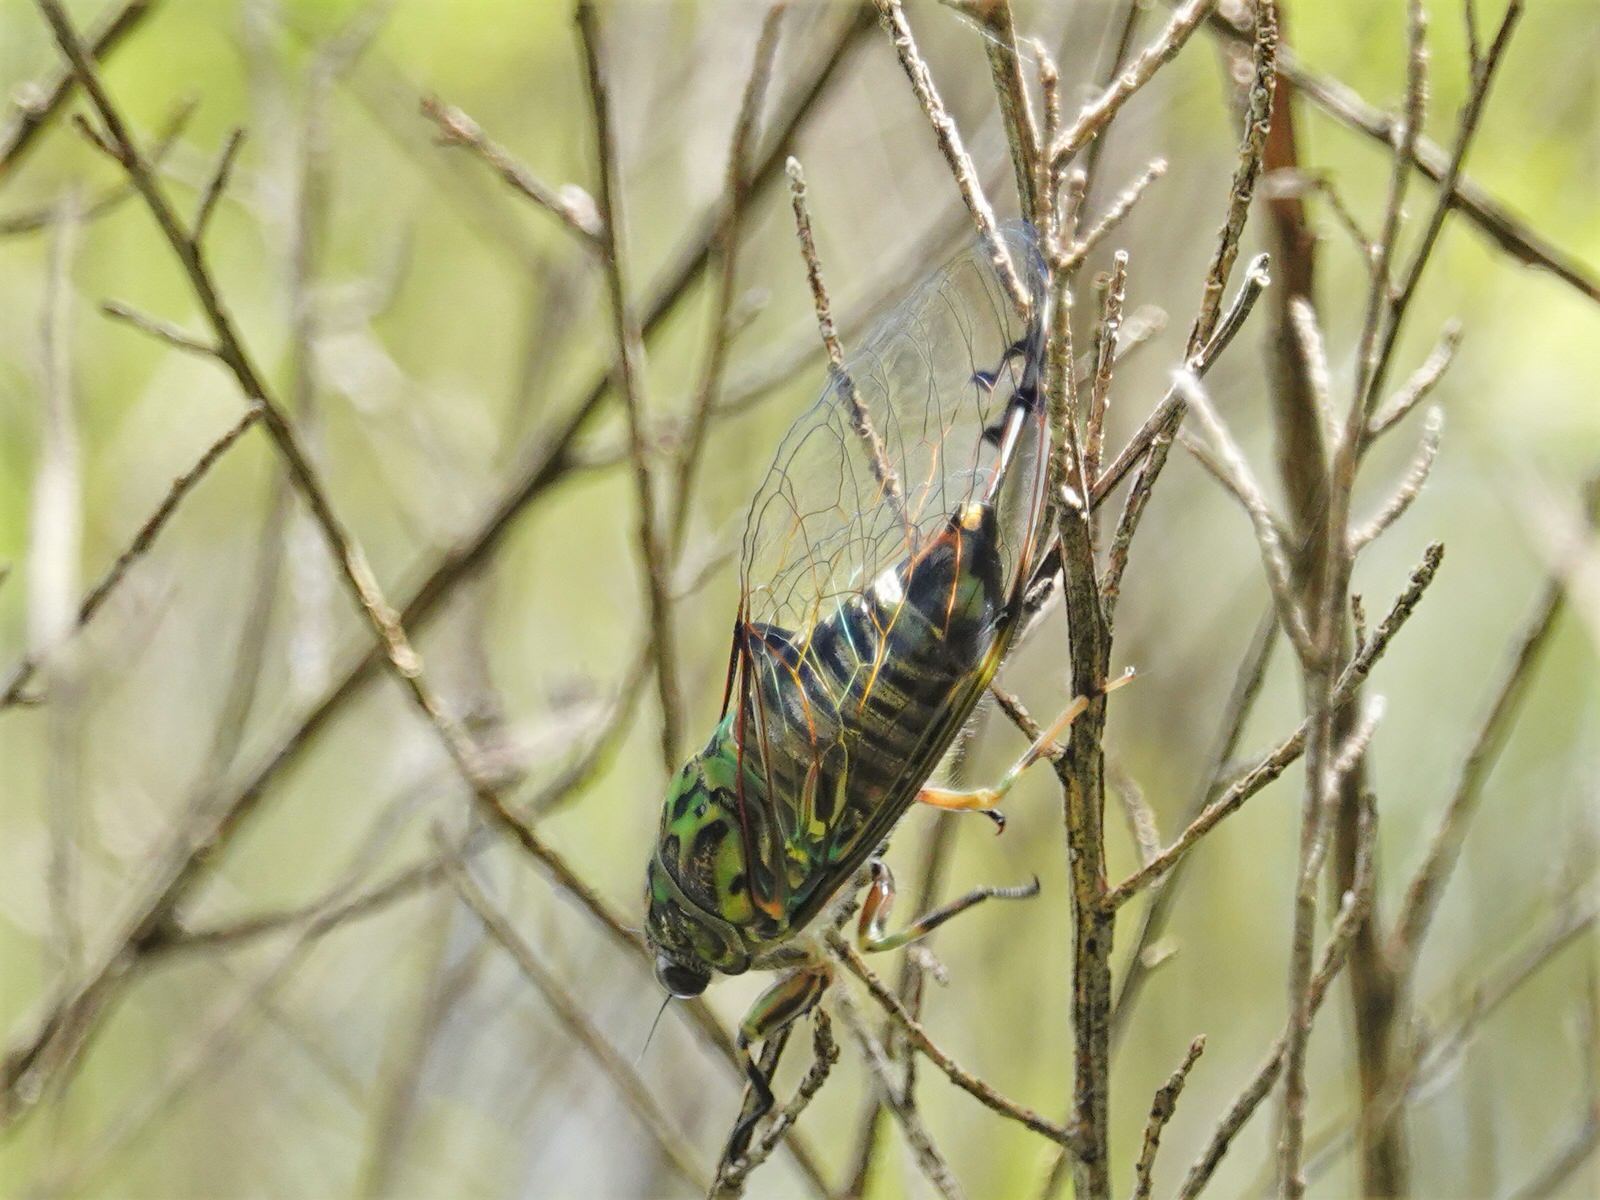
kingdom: Animalia
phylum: Arthropoda
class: Insecta
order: Hemiptera
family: Cicadidae
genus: Amphipsalta
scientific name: Amphipsalta zelandica
